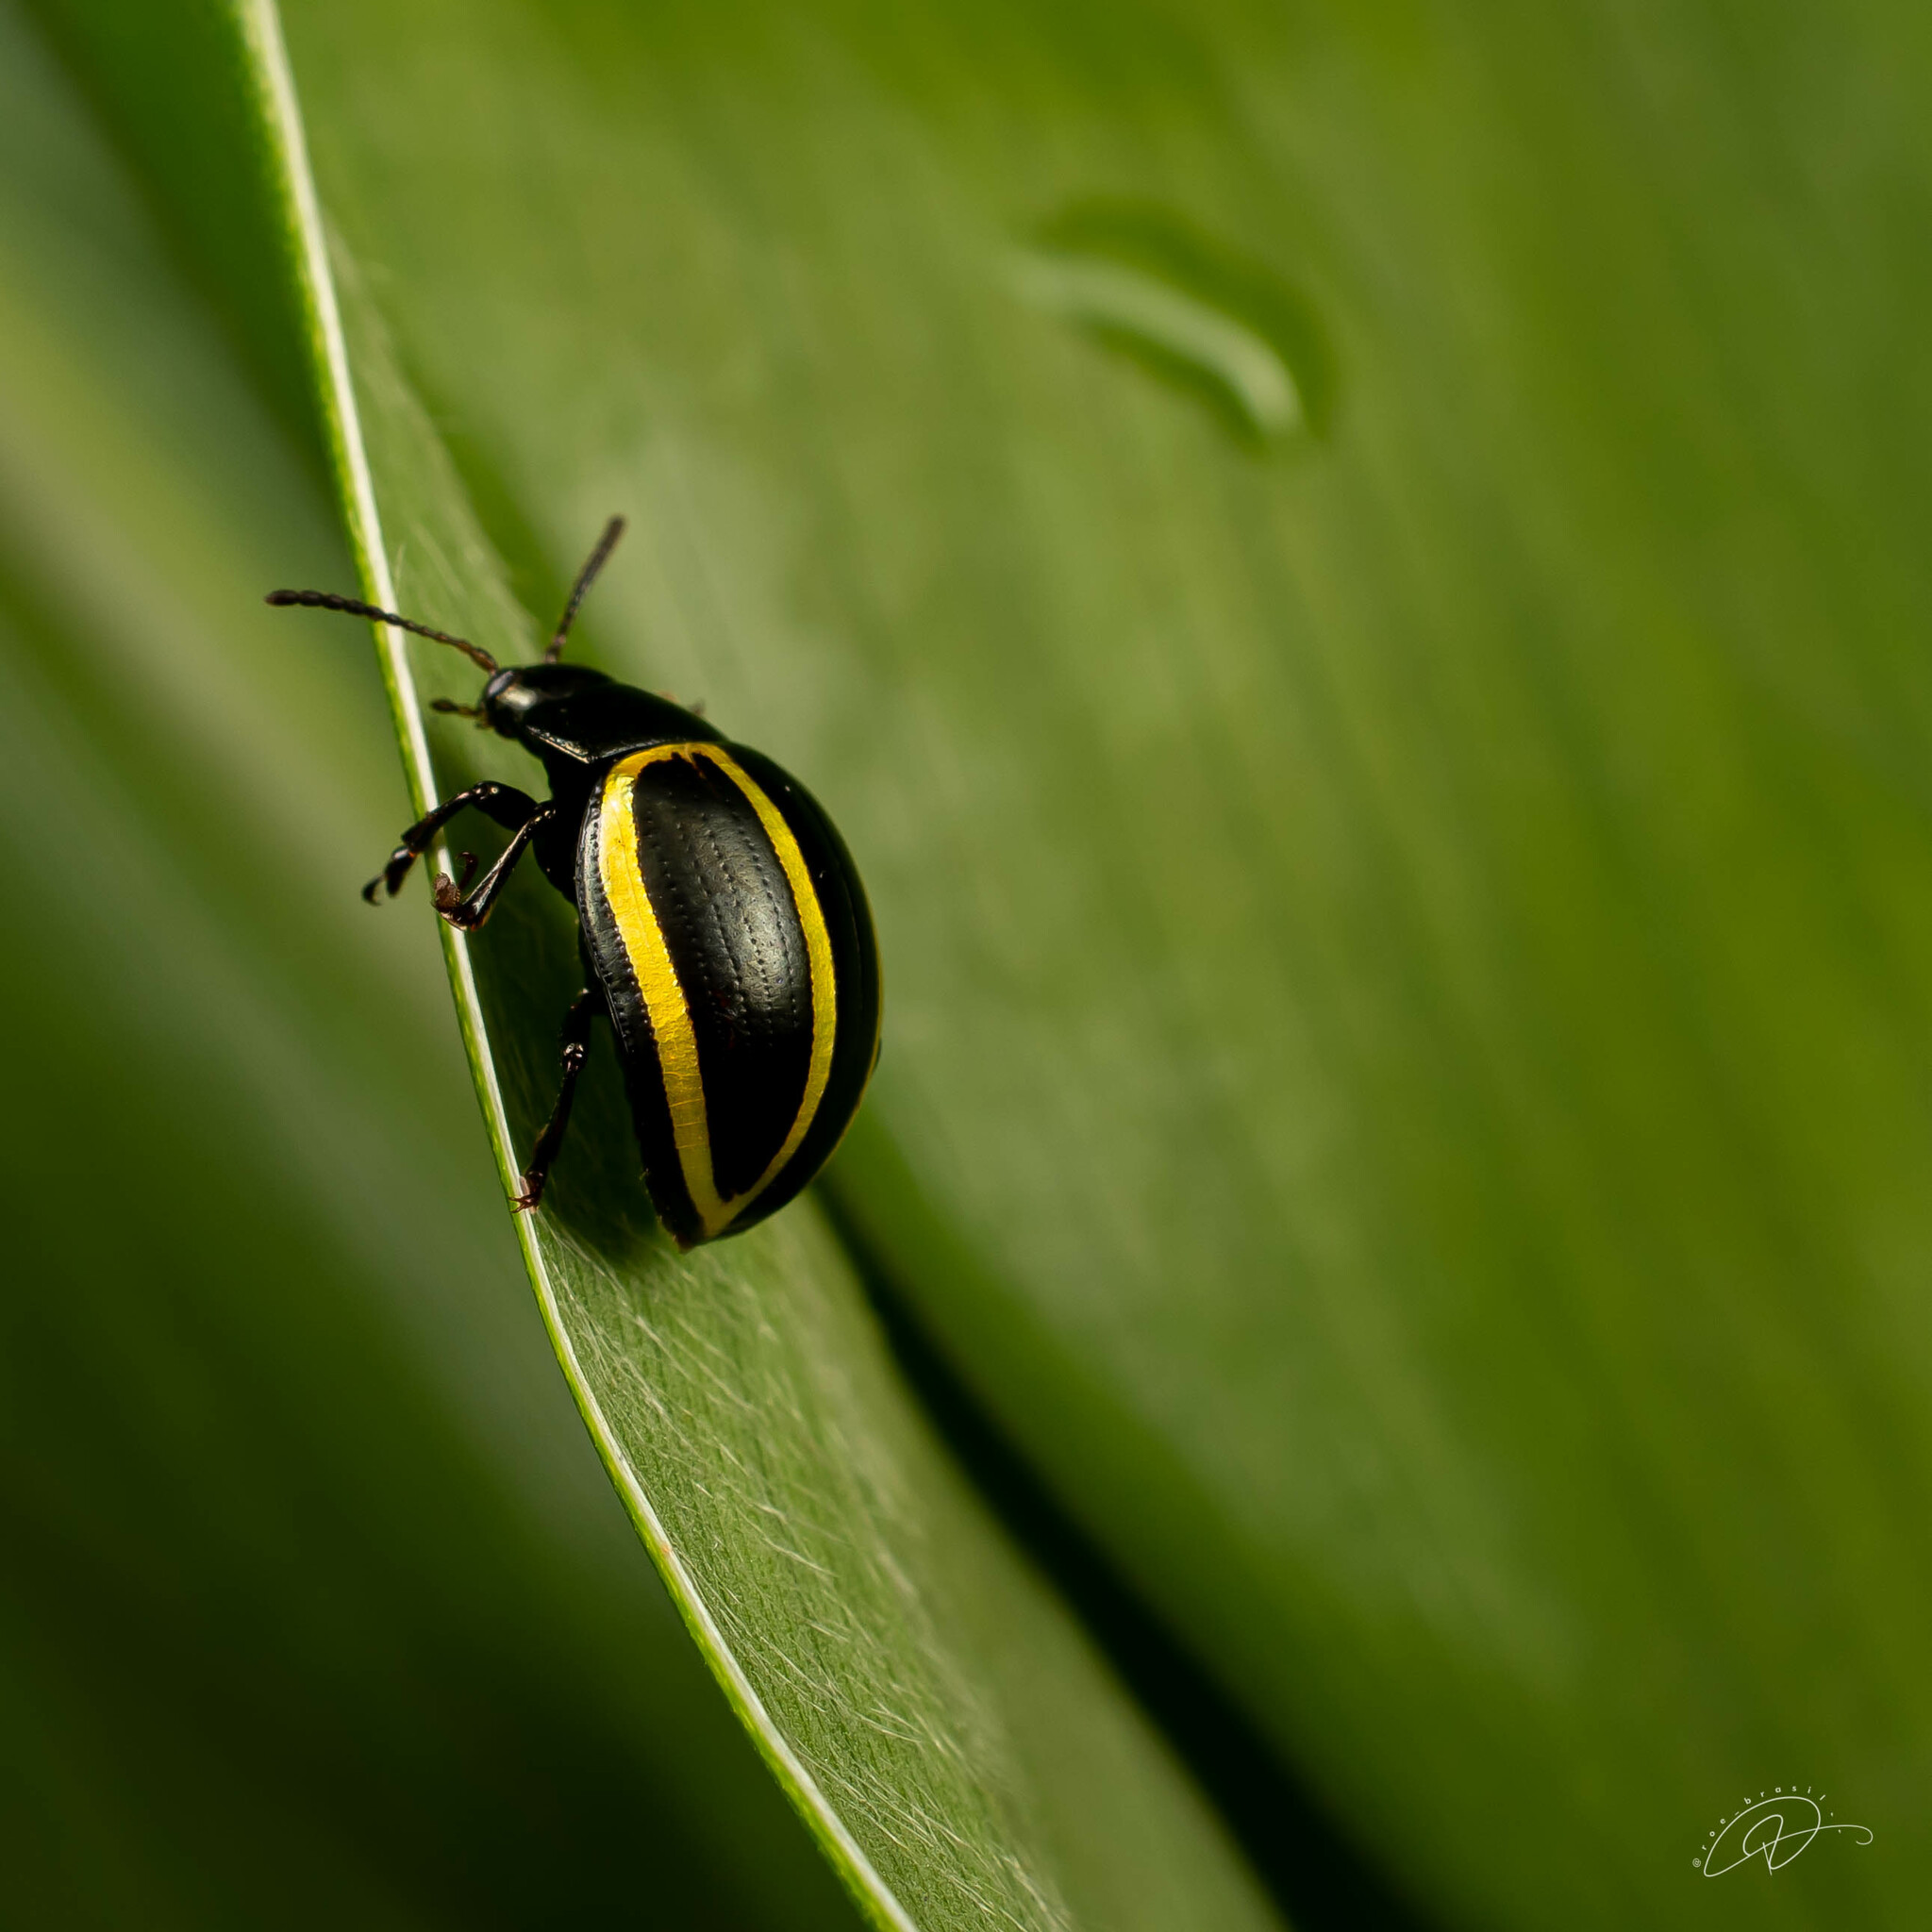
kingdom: Animalia
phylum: Arthropoda
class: Insecta
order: Coleoptera
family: Chrysomelidae
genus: Desmogramma
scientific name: Desmogramma
